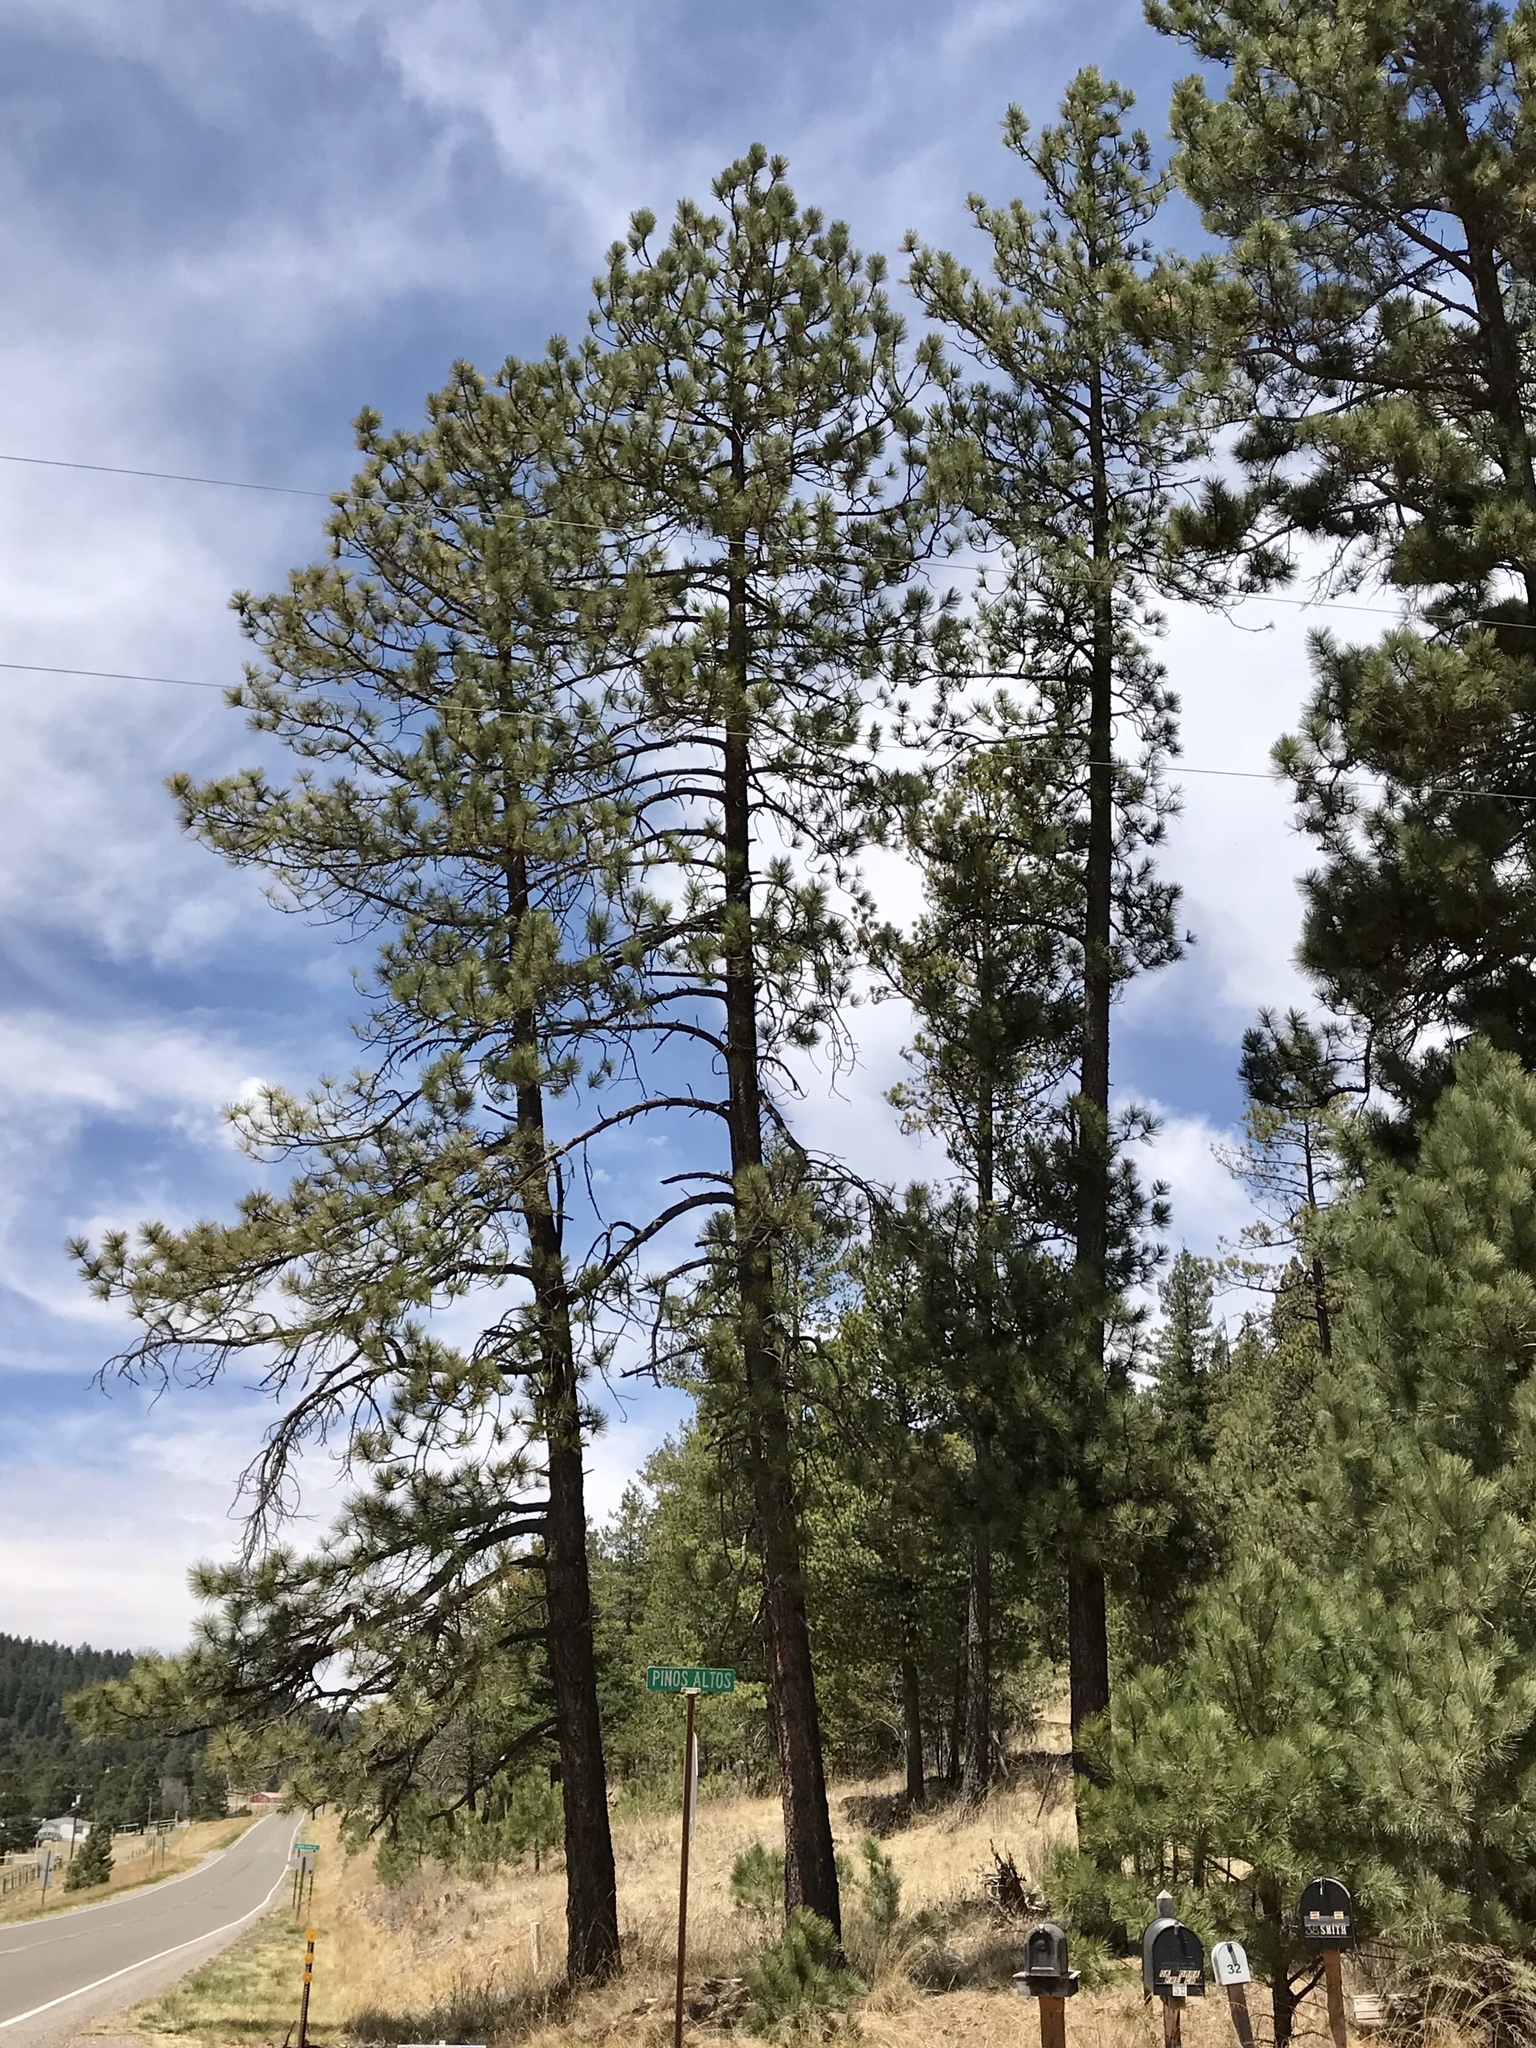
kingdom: Plantae
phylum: Tracheophyta
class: Pinopsida
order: Pinales
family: Pinaceae
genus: Pinus
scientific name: Pinus ponderosa
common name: Western yellow-pine
